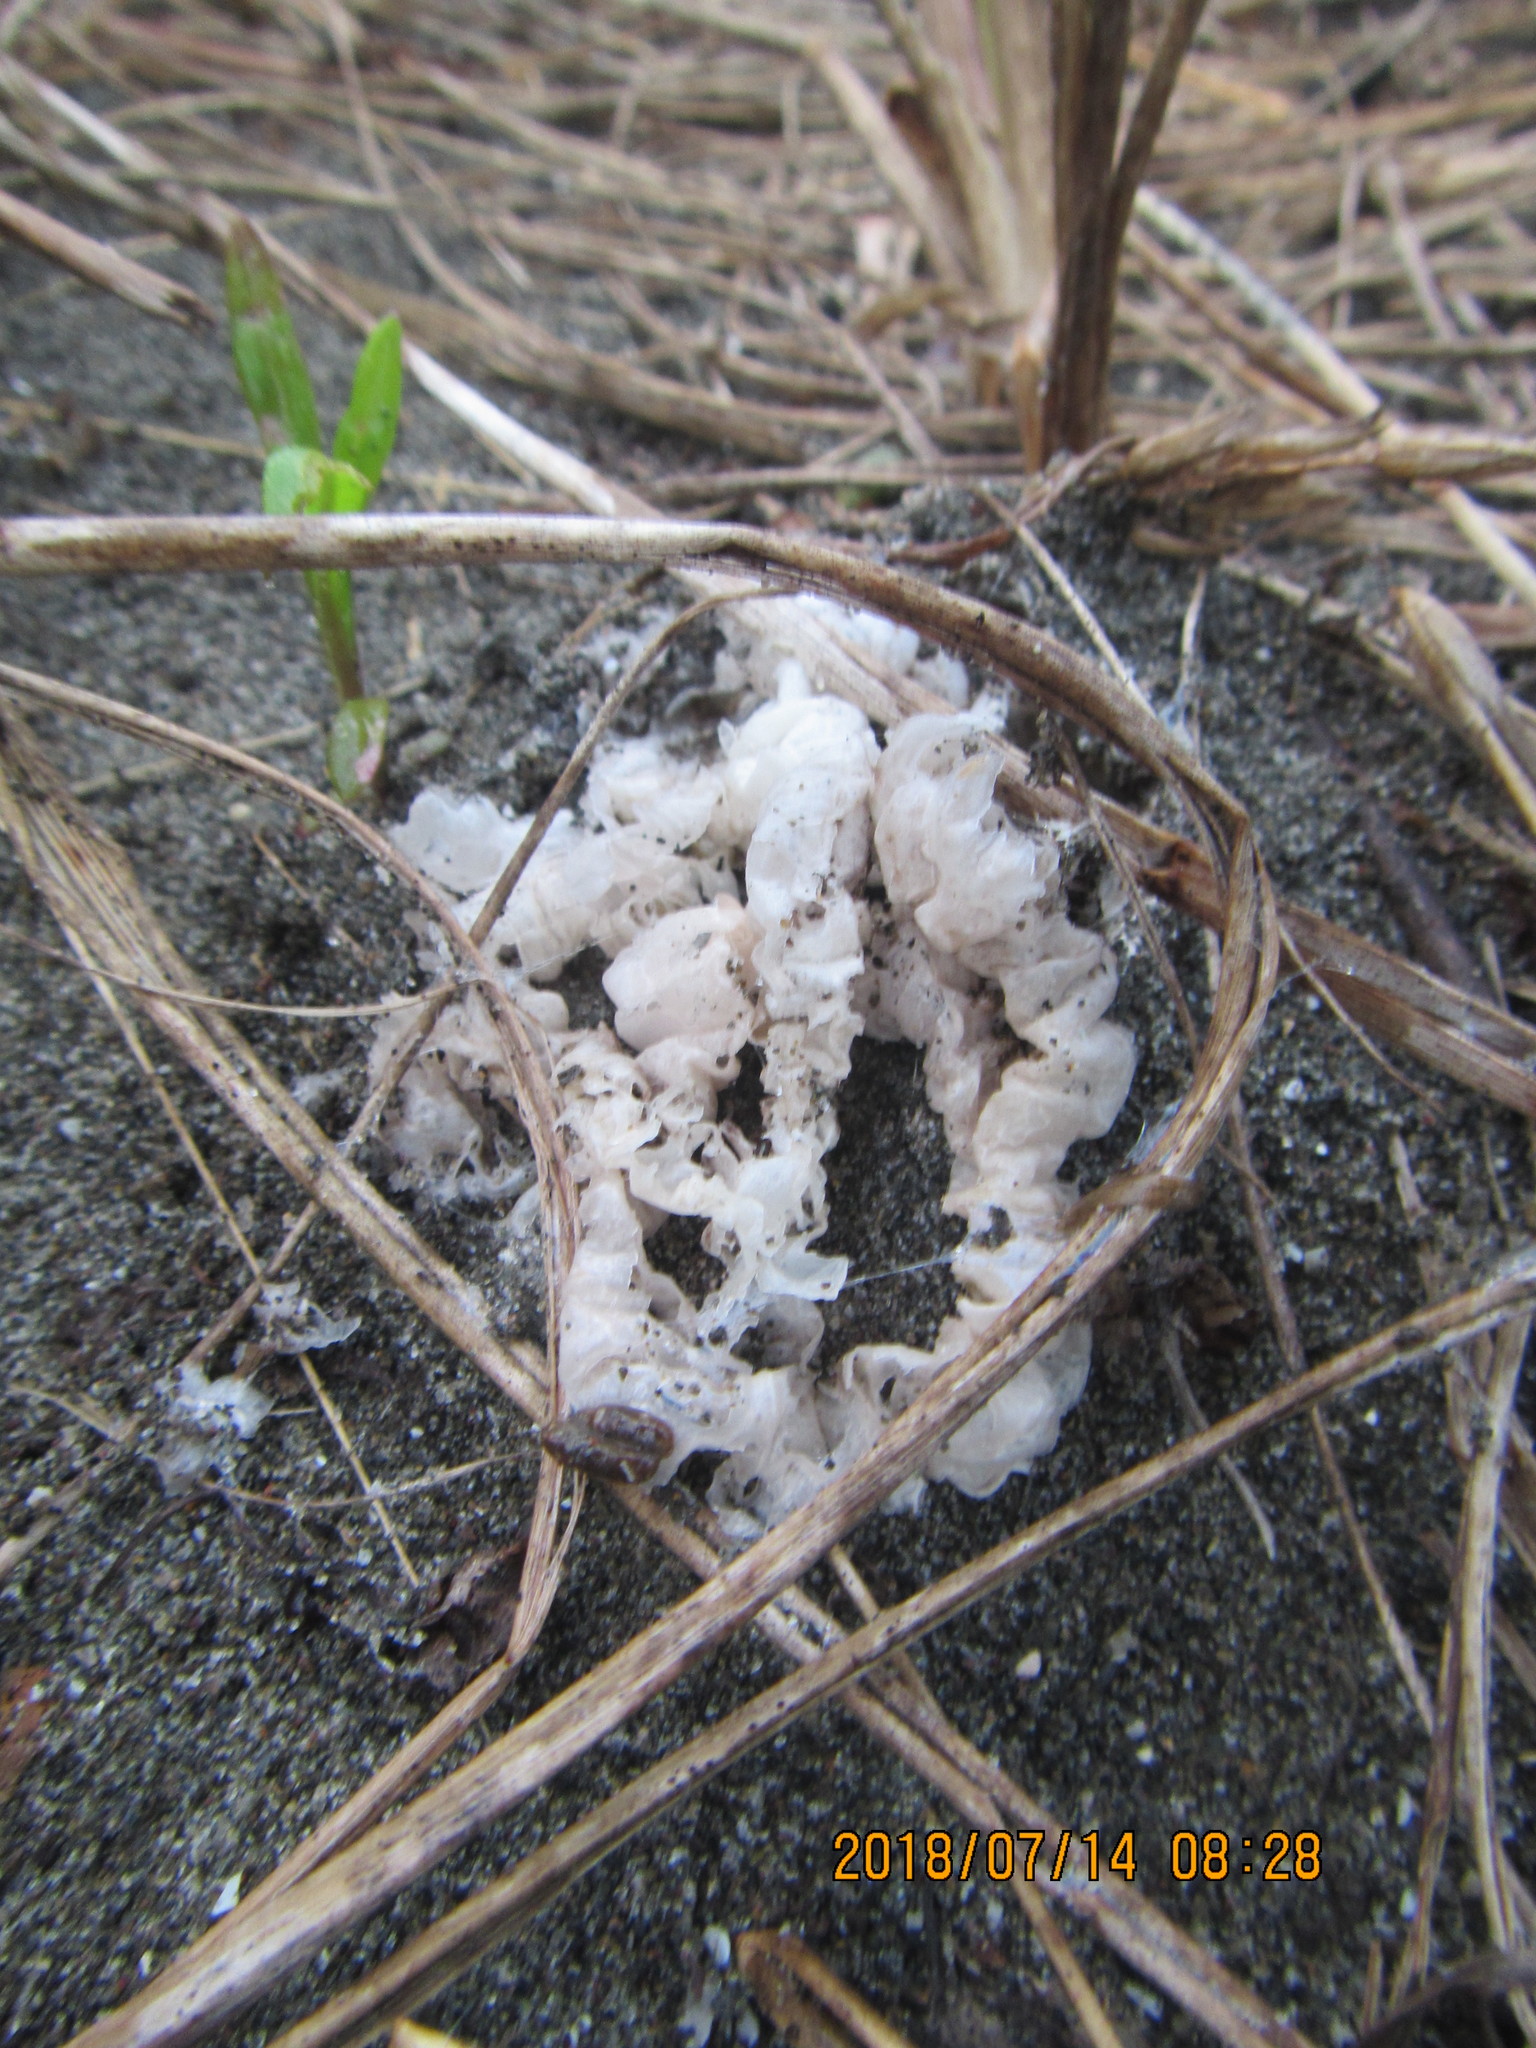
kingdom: Fungi
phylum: Basidiomycota
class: Agaricomycetes
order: Phallales
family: Phallaceae
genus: Ileodictyon
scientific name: Ileodictyon cibarium
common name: Basket fungus
